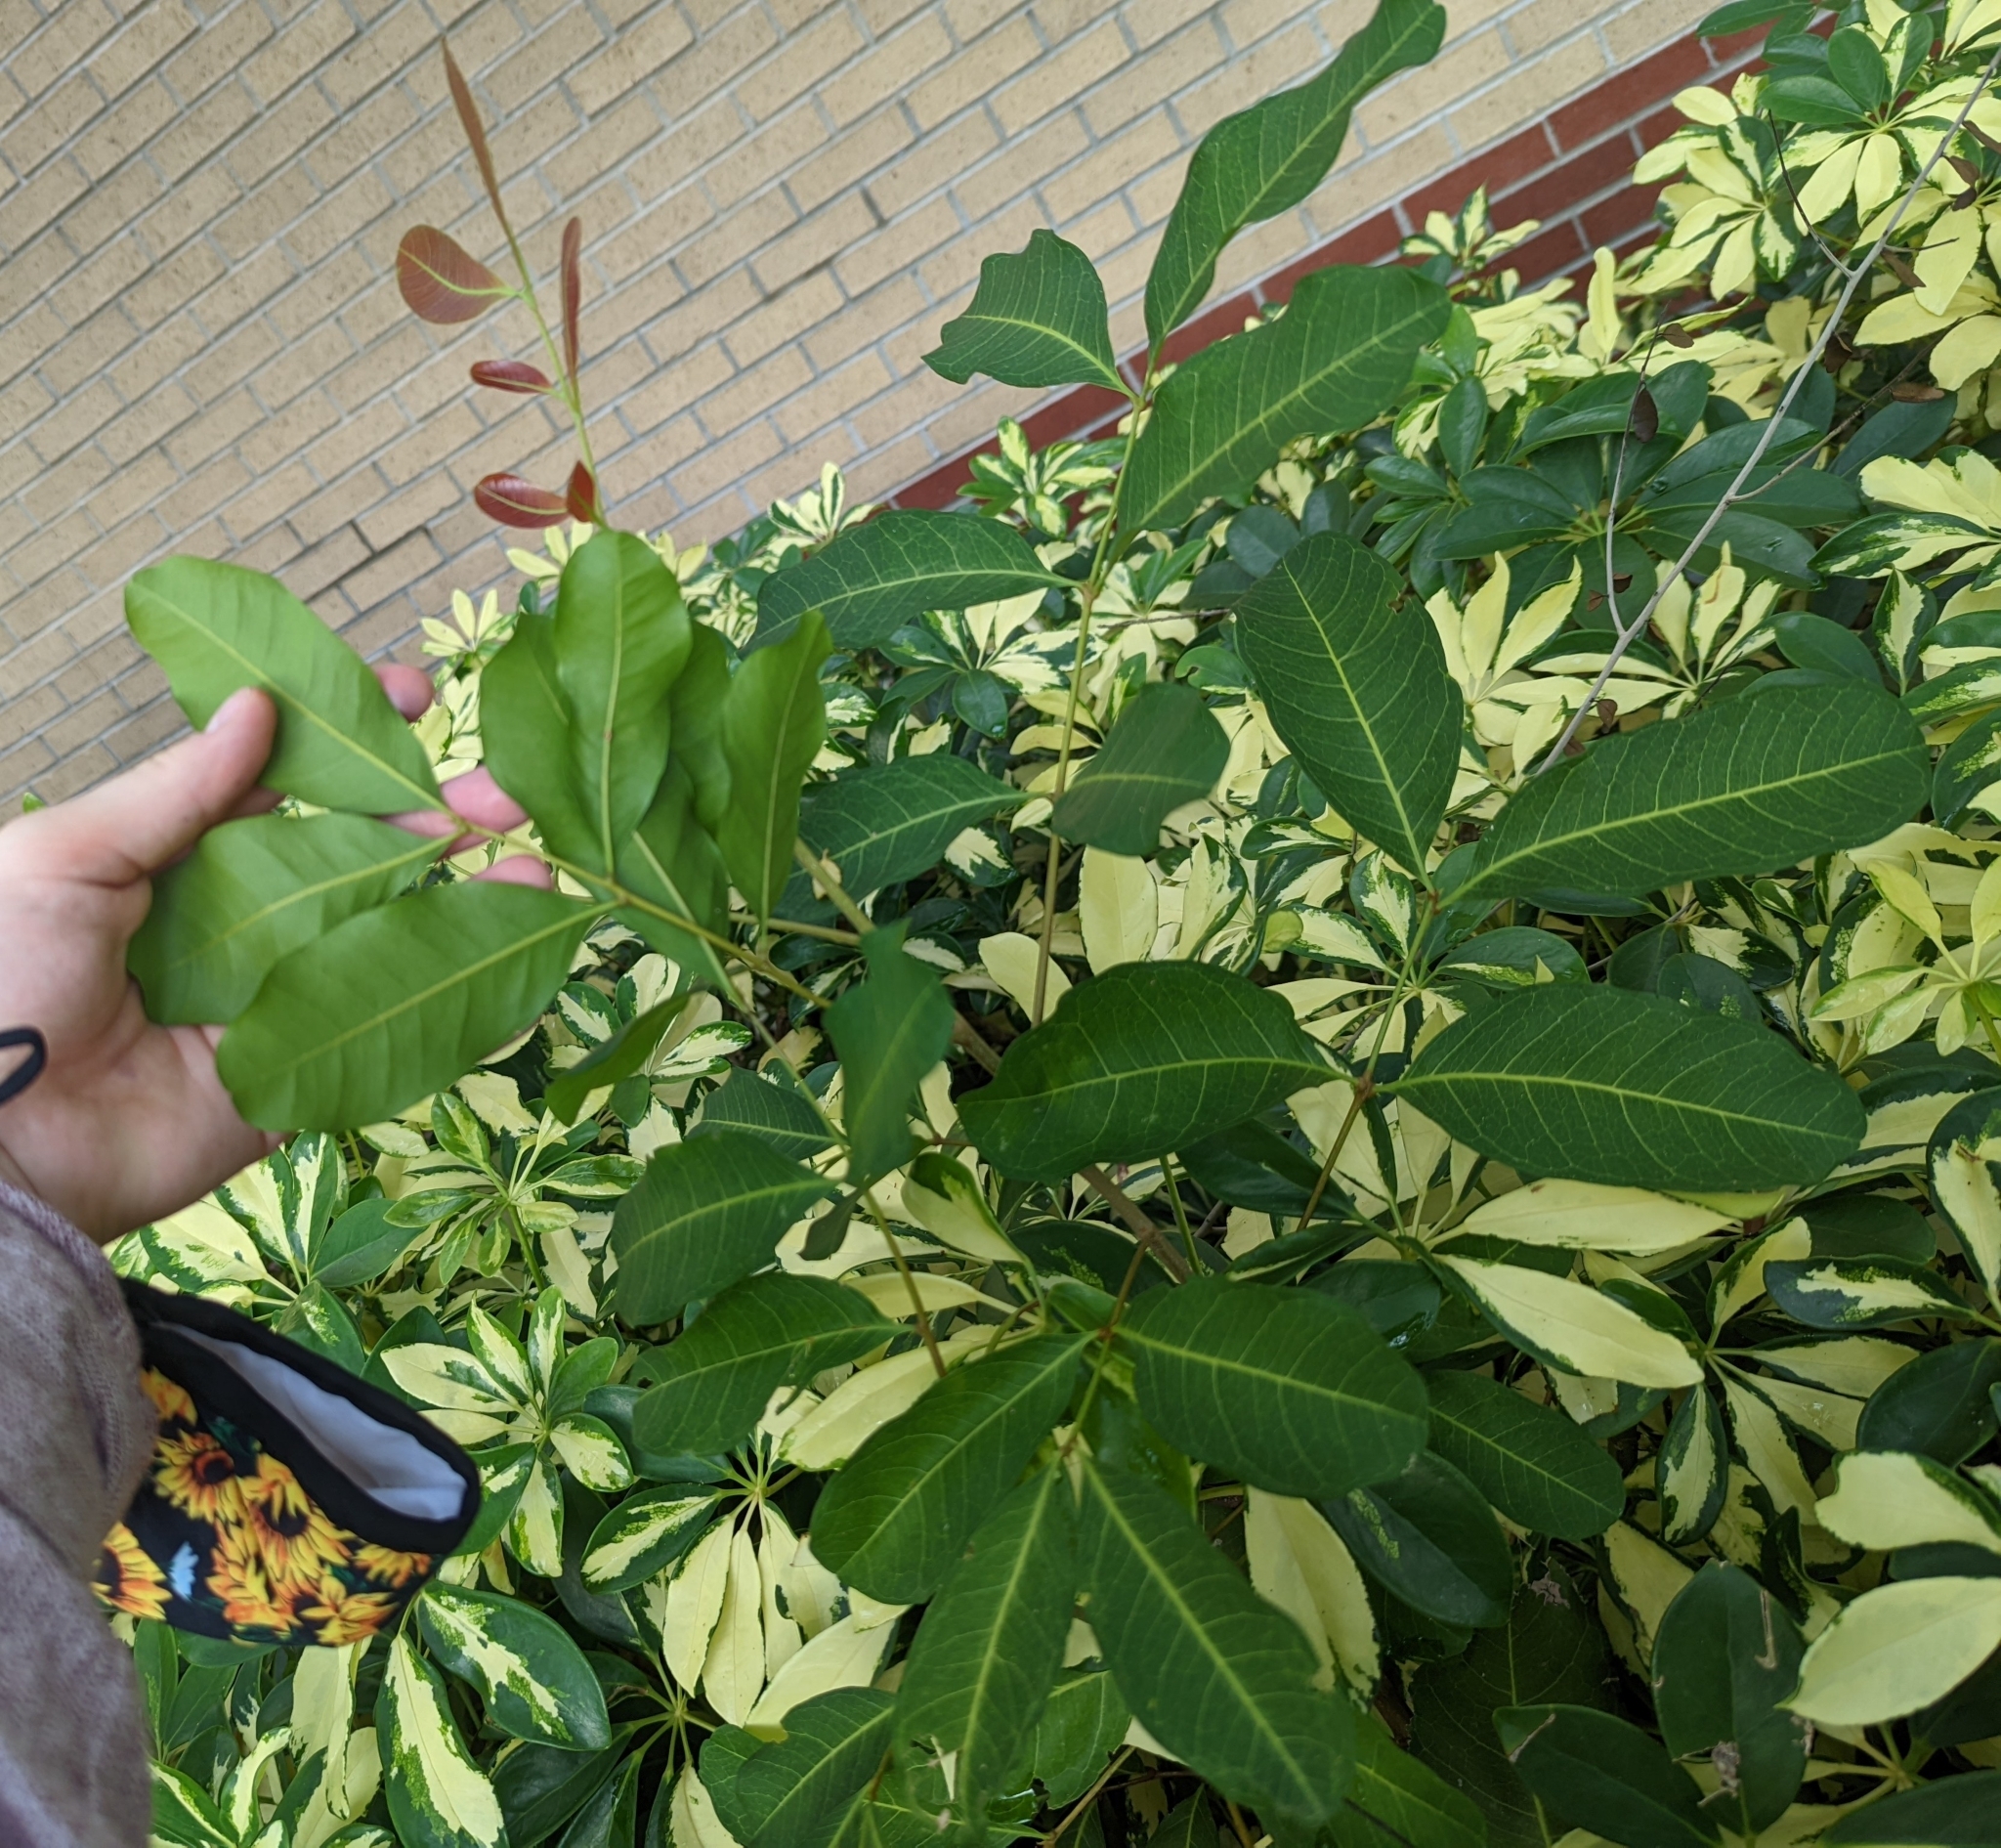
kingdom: Plantae
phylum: Tracheophyta
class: Magnoliopsida
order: Sapindales
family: Sapindaceae
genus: Cupaniopsis
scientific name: Cupaniopsis anacardioides
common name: Carrotwood
